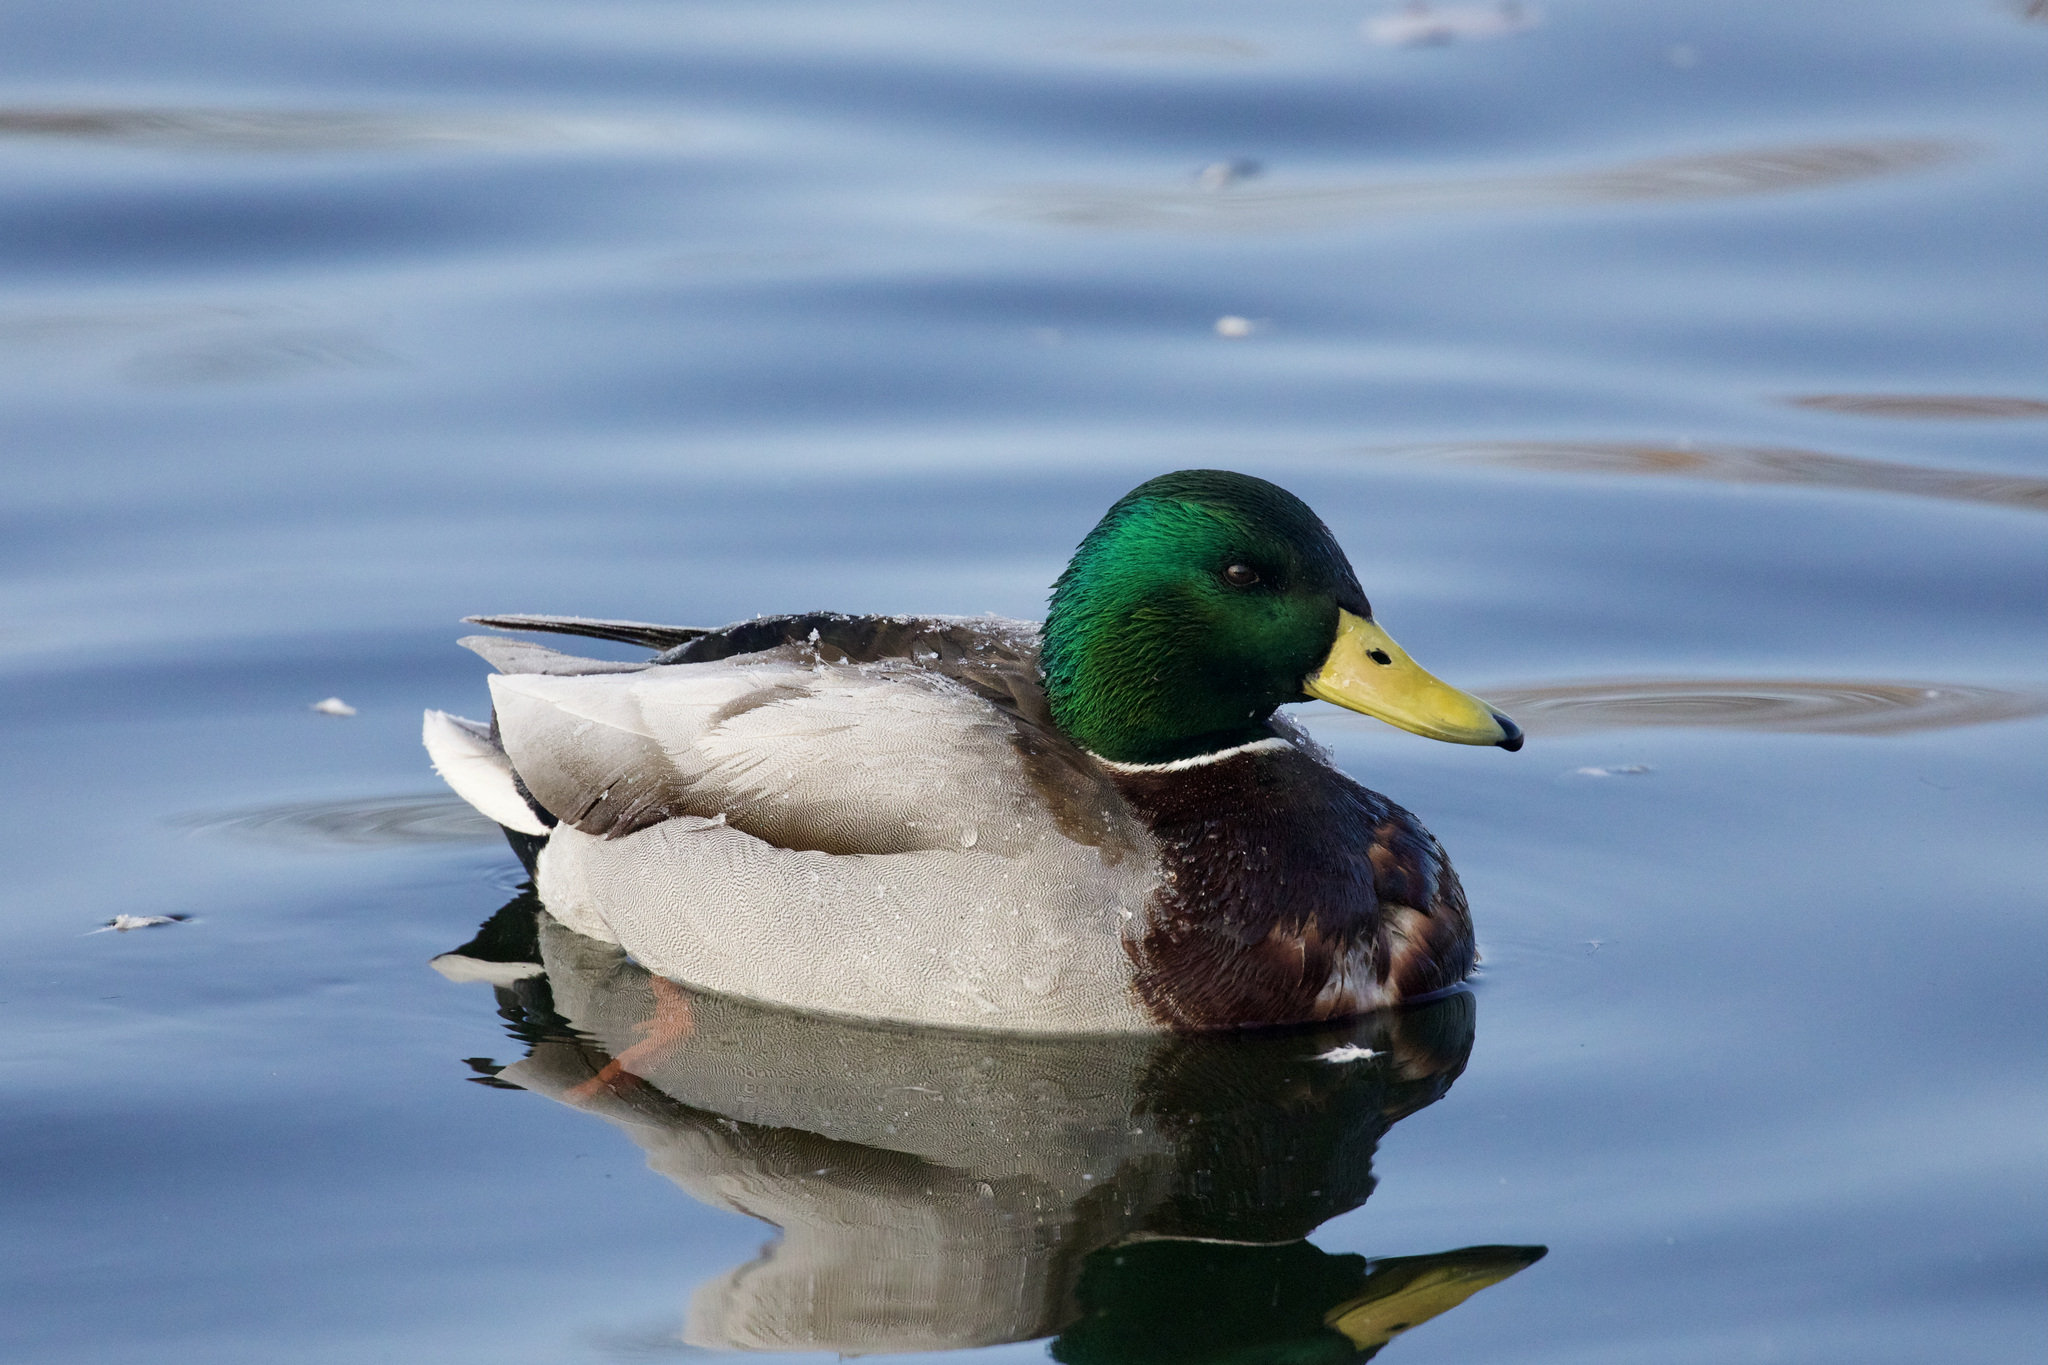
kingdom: Animalia
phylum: Chordata
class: Aves
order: Anseriformes
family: Anatidae
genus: Anas
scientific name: Anas platyrhynchos
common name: Mallard
